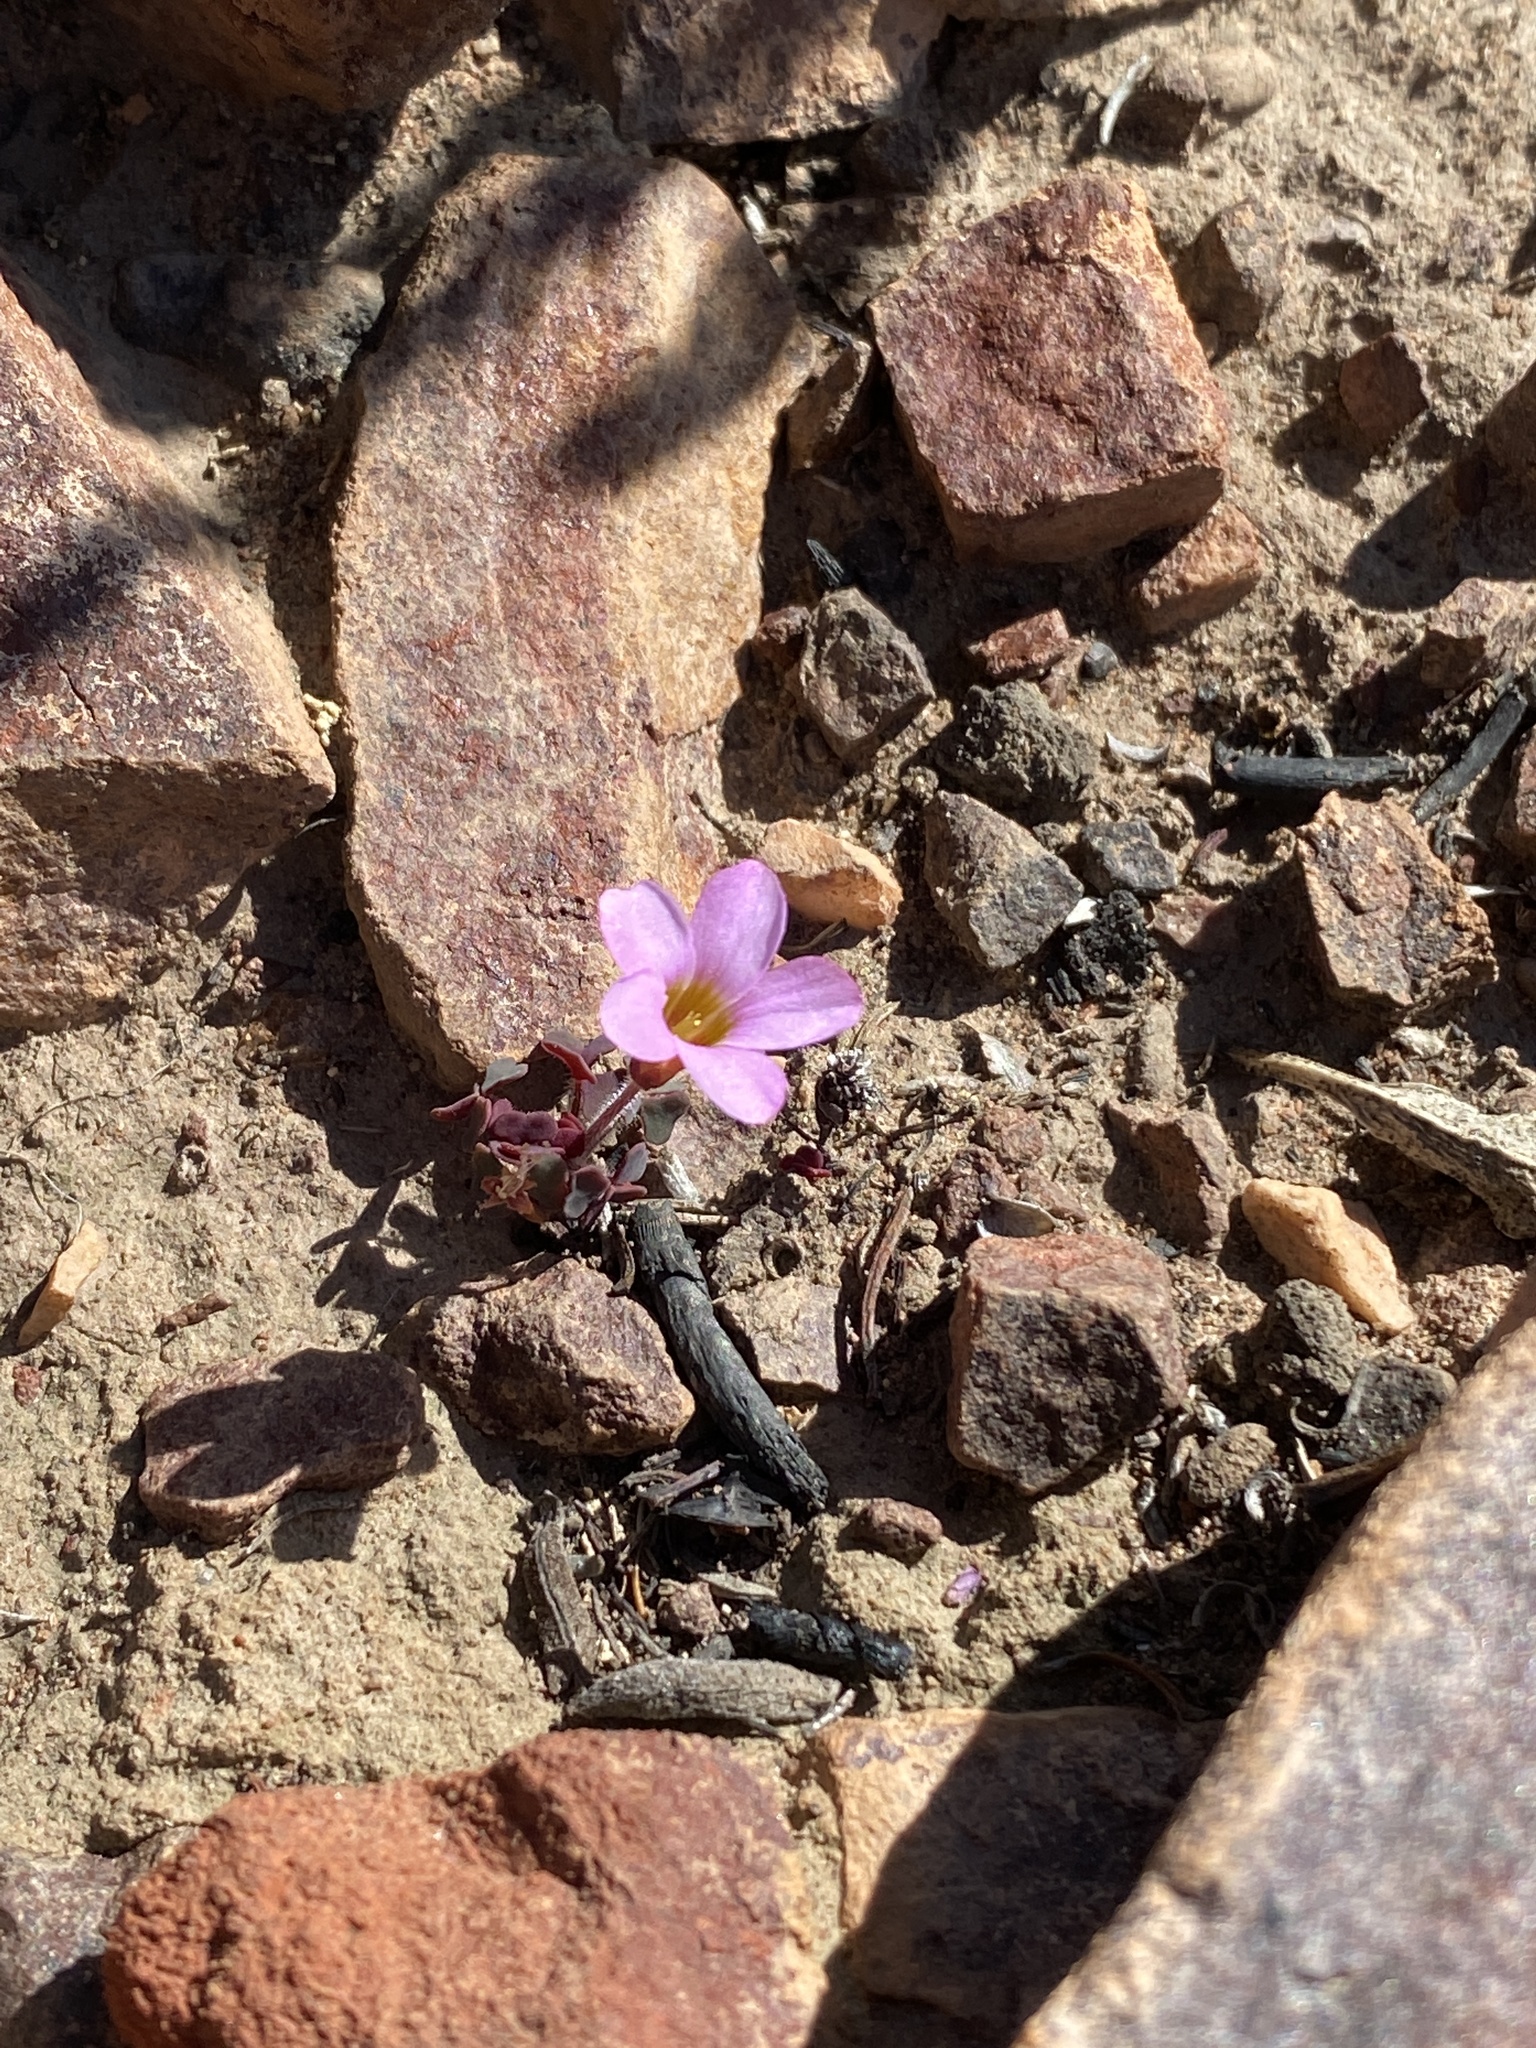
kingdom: Plantae
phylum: Tracheophyta
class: Magnoliopsida
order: Oxalidales
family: Oxalidaceae
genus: Oxalis
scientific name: Oxalis punctata
